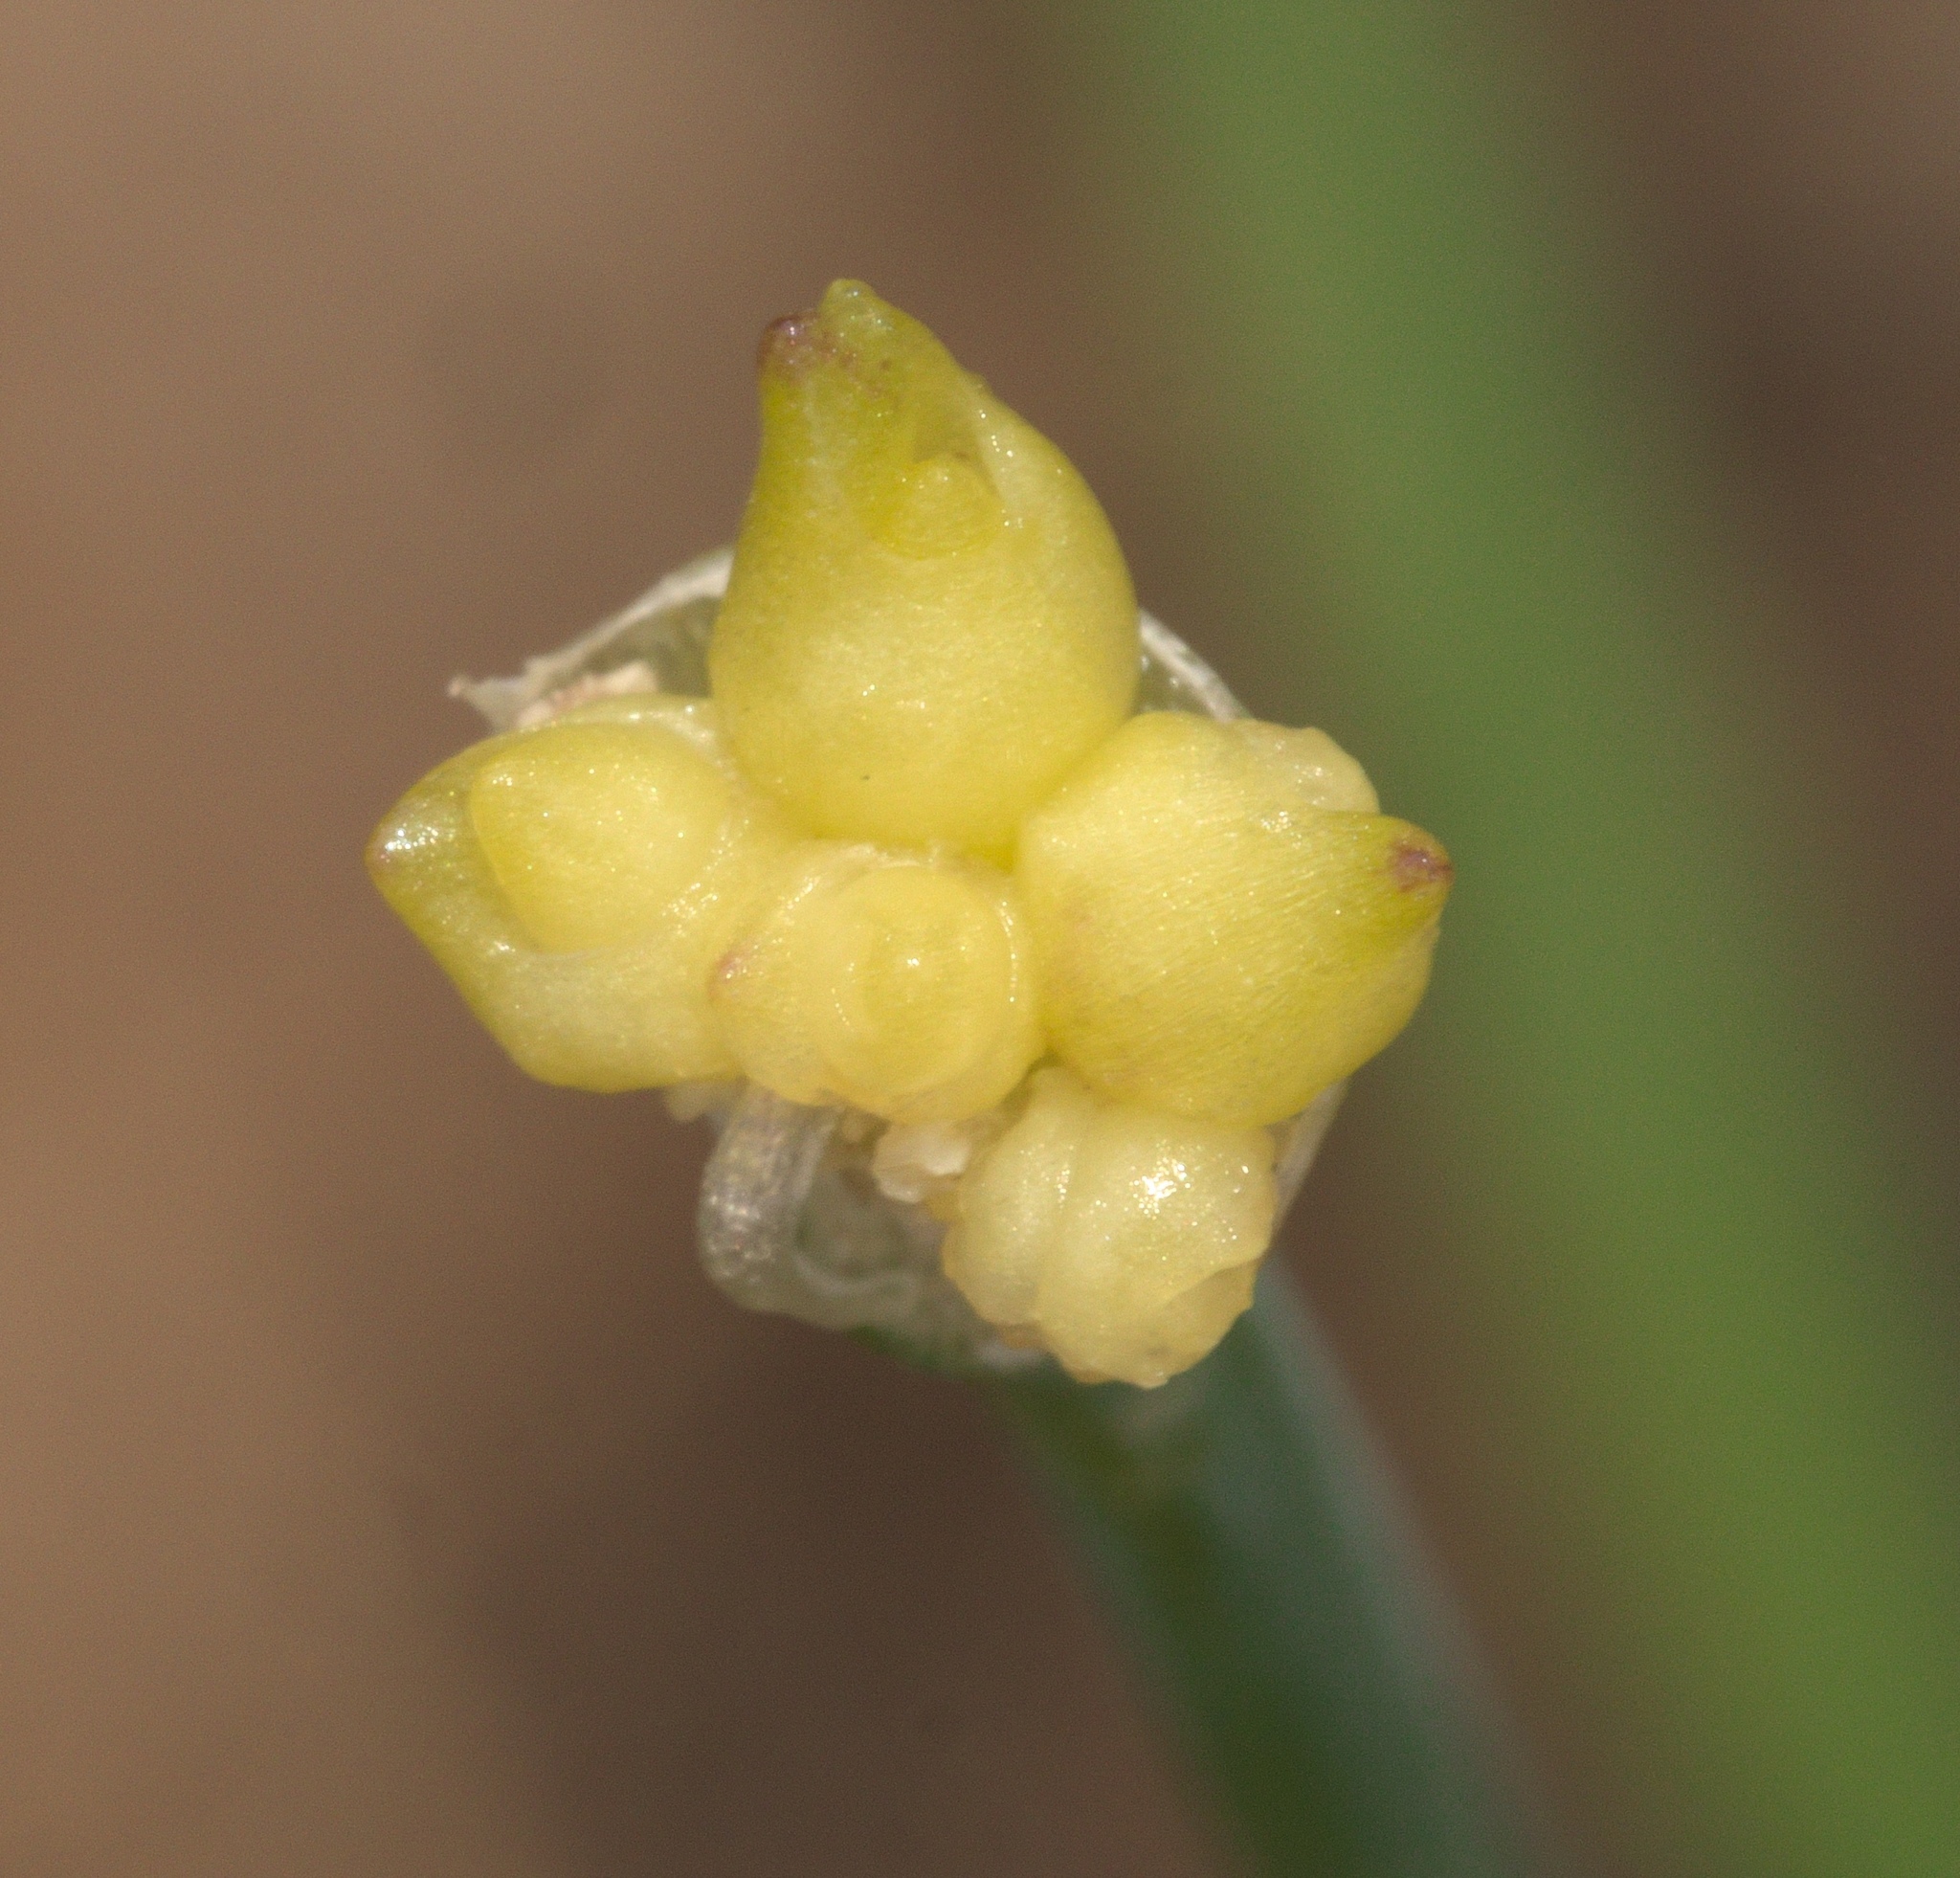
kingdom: Plantae
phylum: Tracheophyta
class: Liliopsida
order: Asparagales
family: Amaryllidaceae
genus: Allium
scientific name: Allium canadense
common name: Meadow garlic
